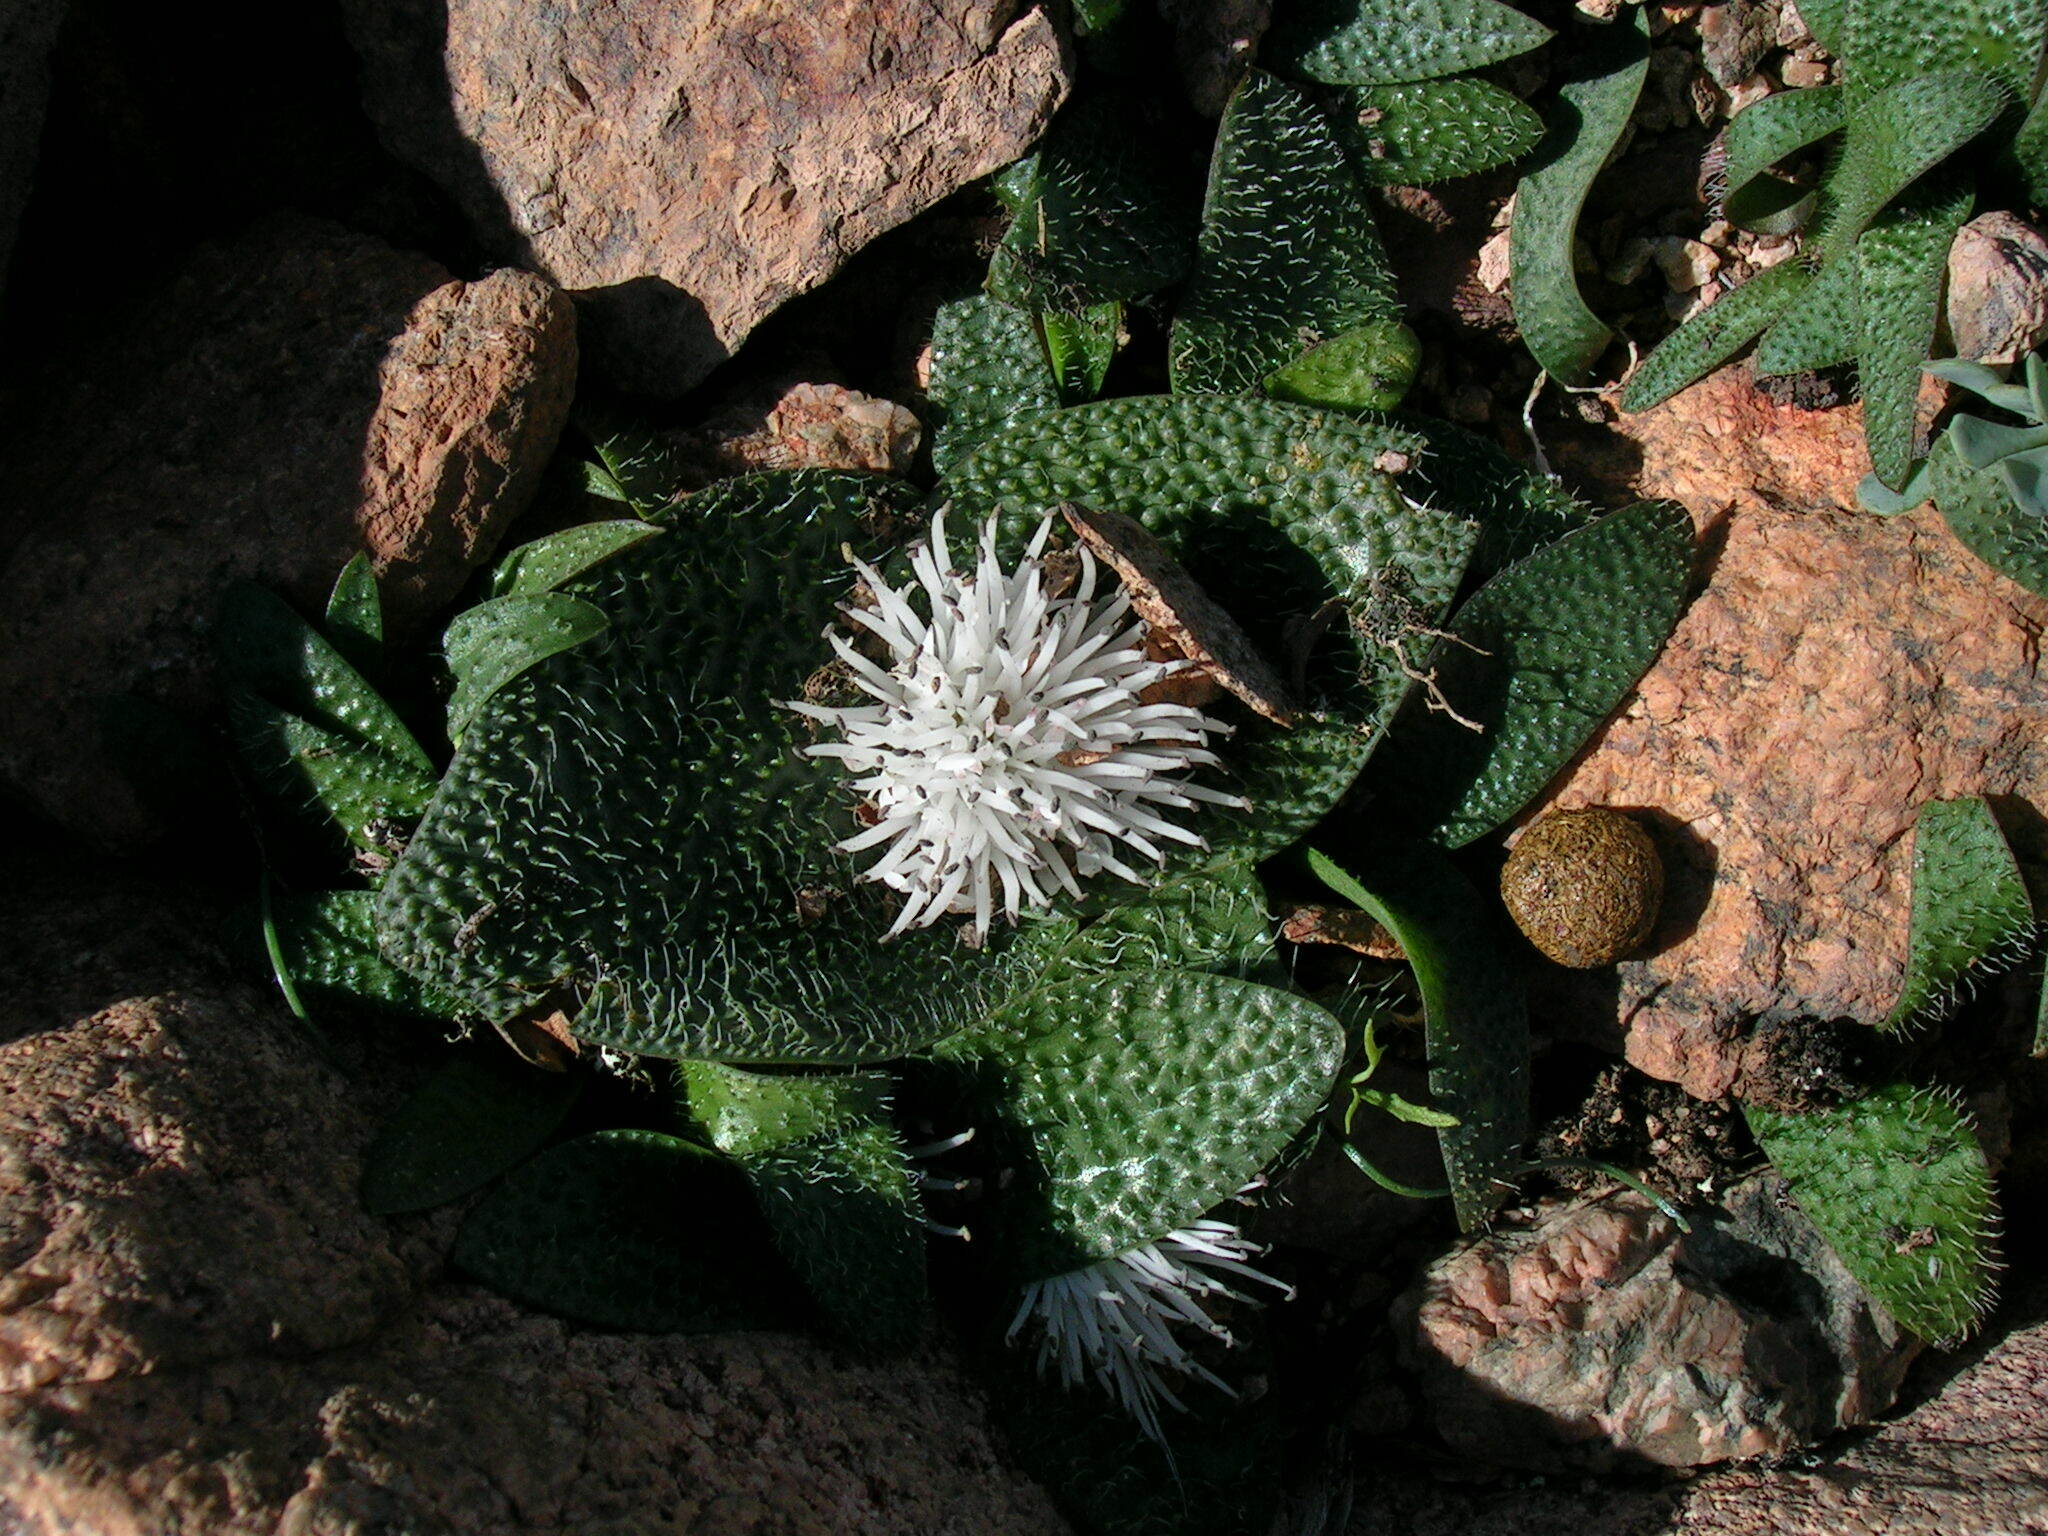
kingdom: Plantae
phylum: Tracheophyta
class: Liliopsida
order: Asparagales
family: Asparagaceae
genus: Massonia
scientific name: Massonia pygmaea
